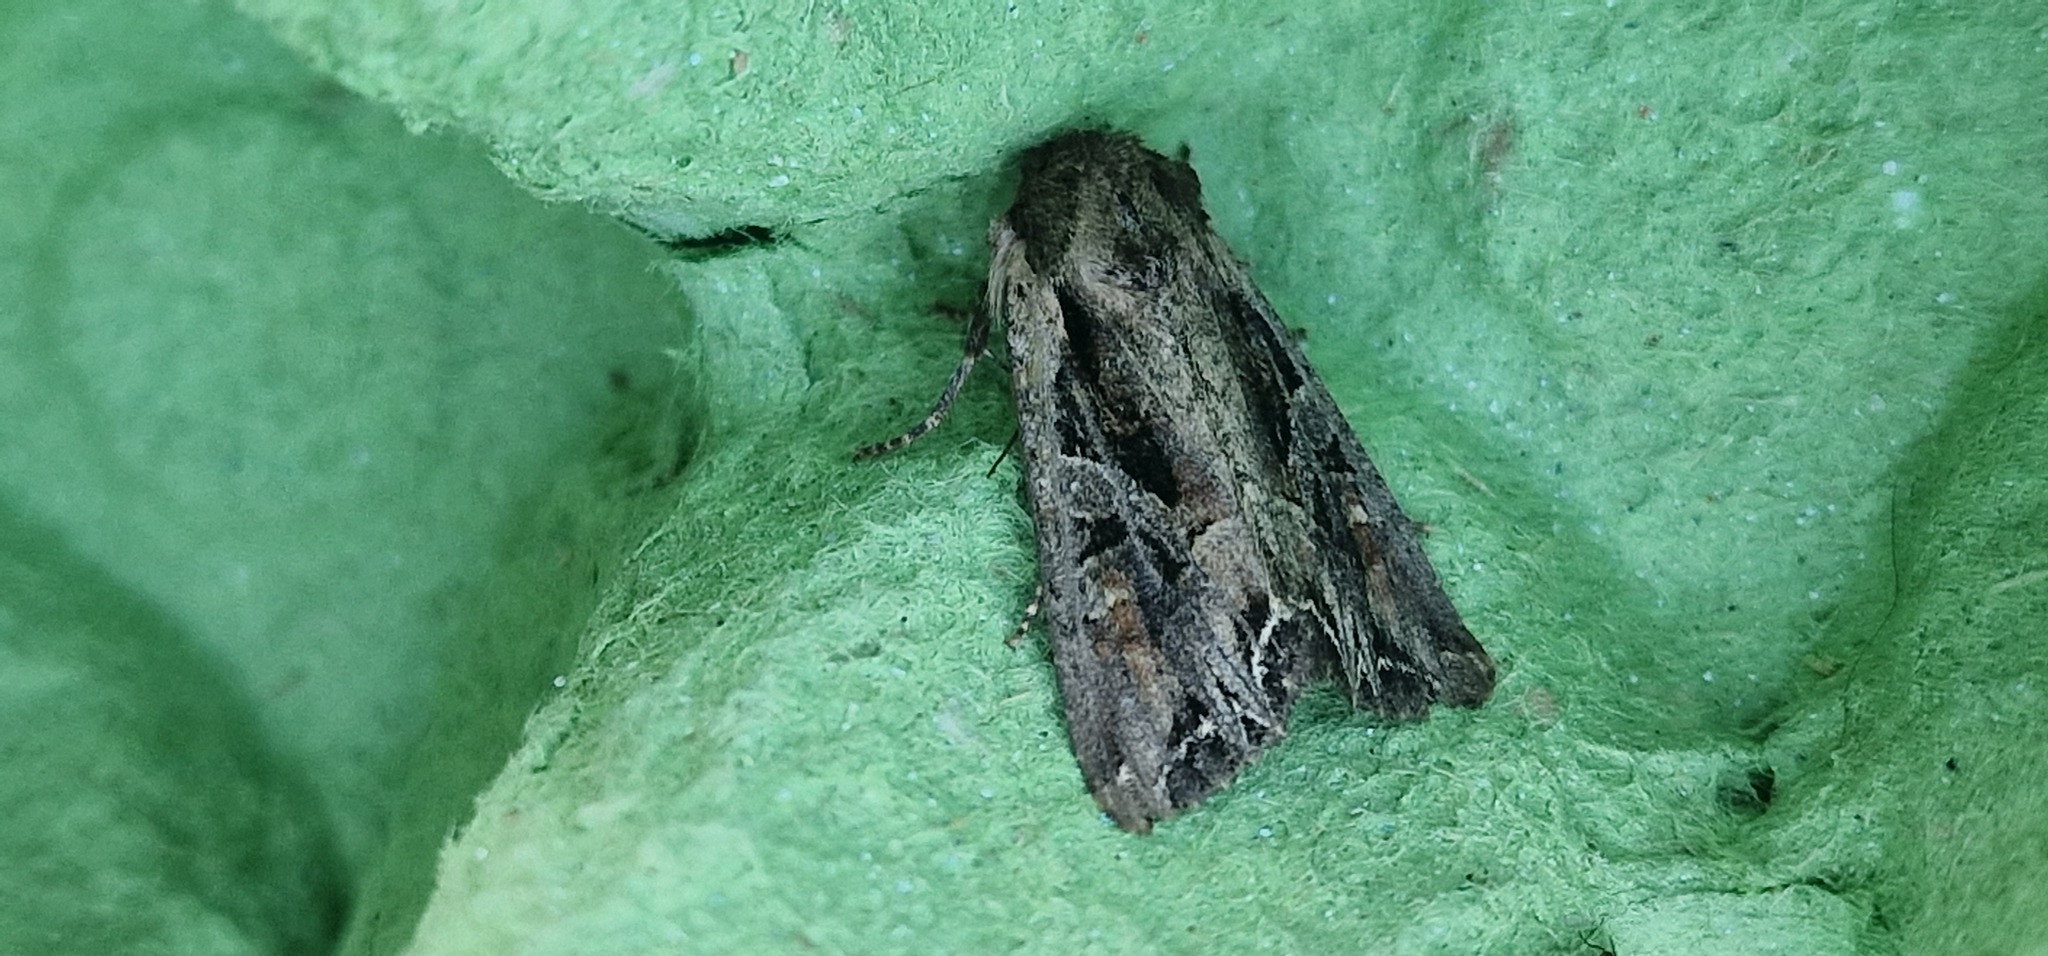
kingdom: Animalia
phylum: Arthropoda
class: Insecta
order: Lepidoptera
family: Noctuidae
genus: Lacanobia
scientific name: Lacanobia suasa
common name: Dog's tooth
